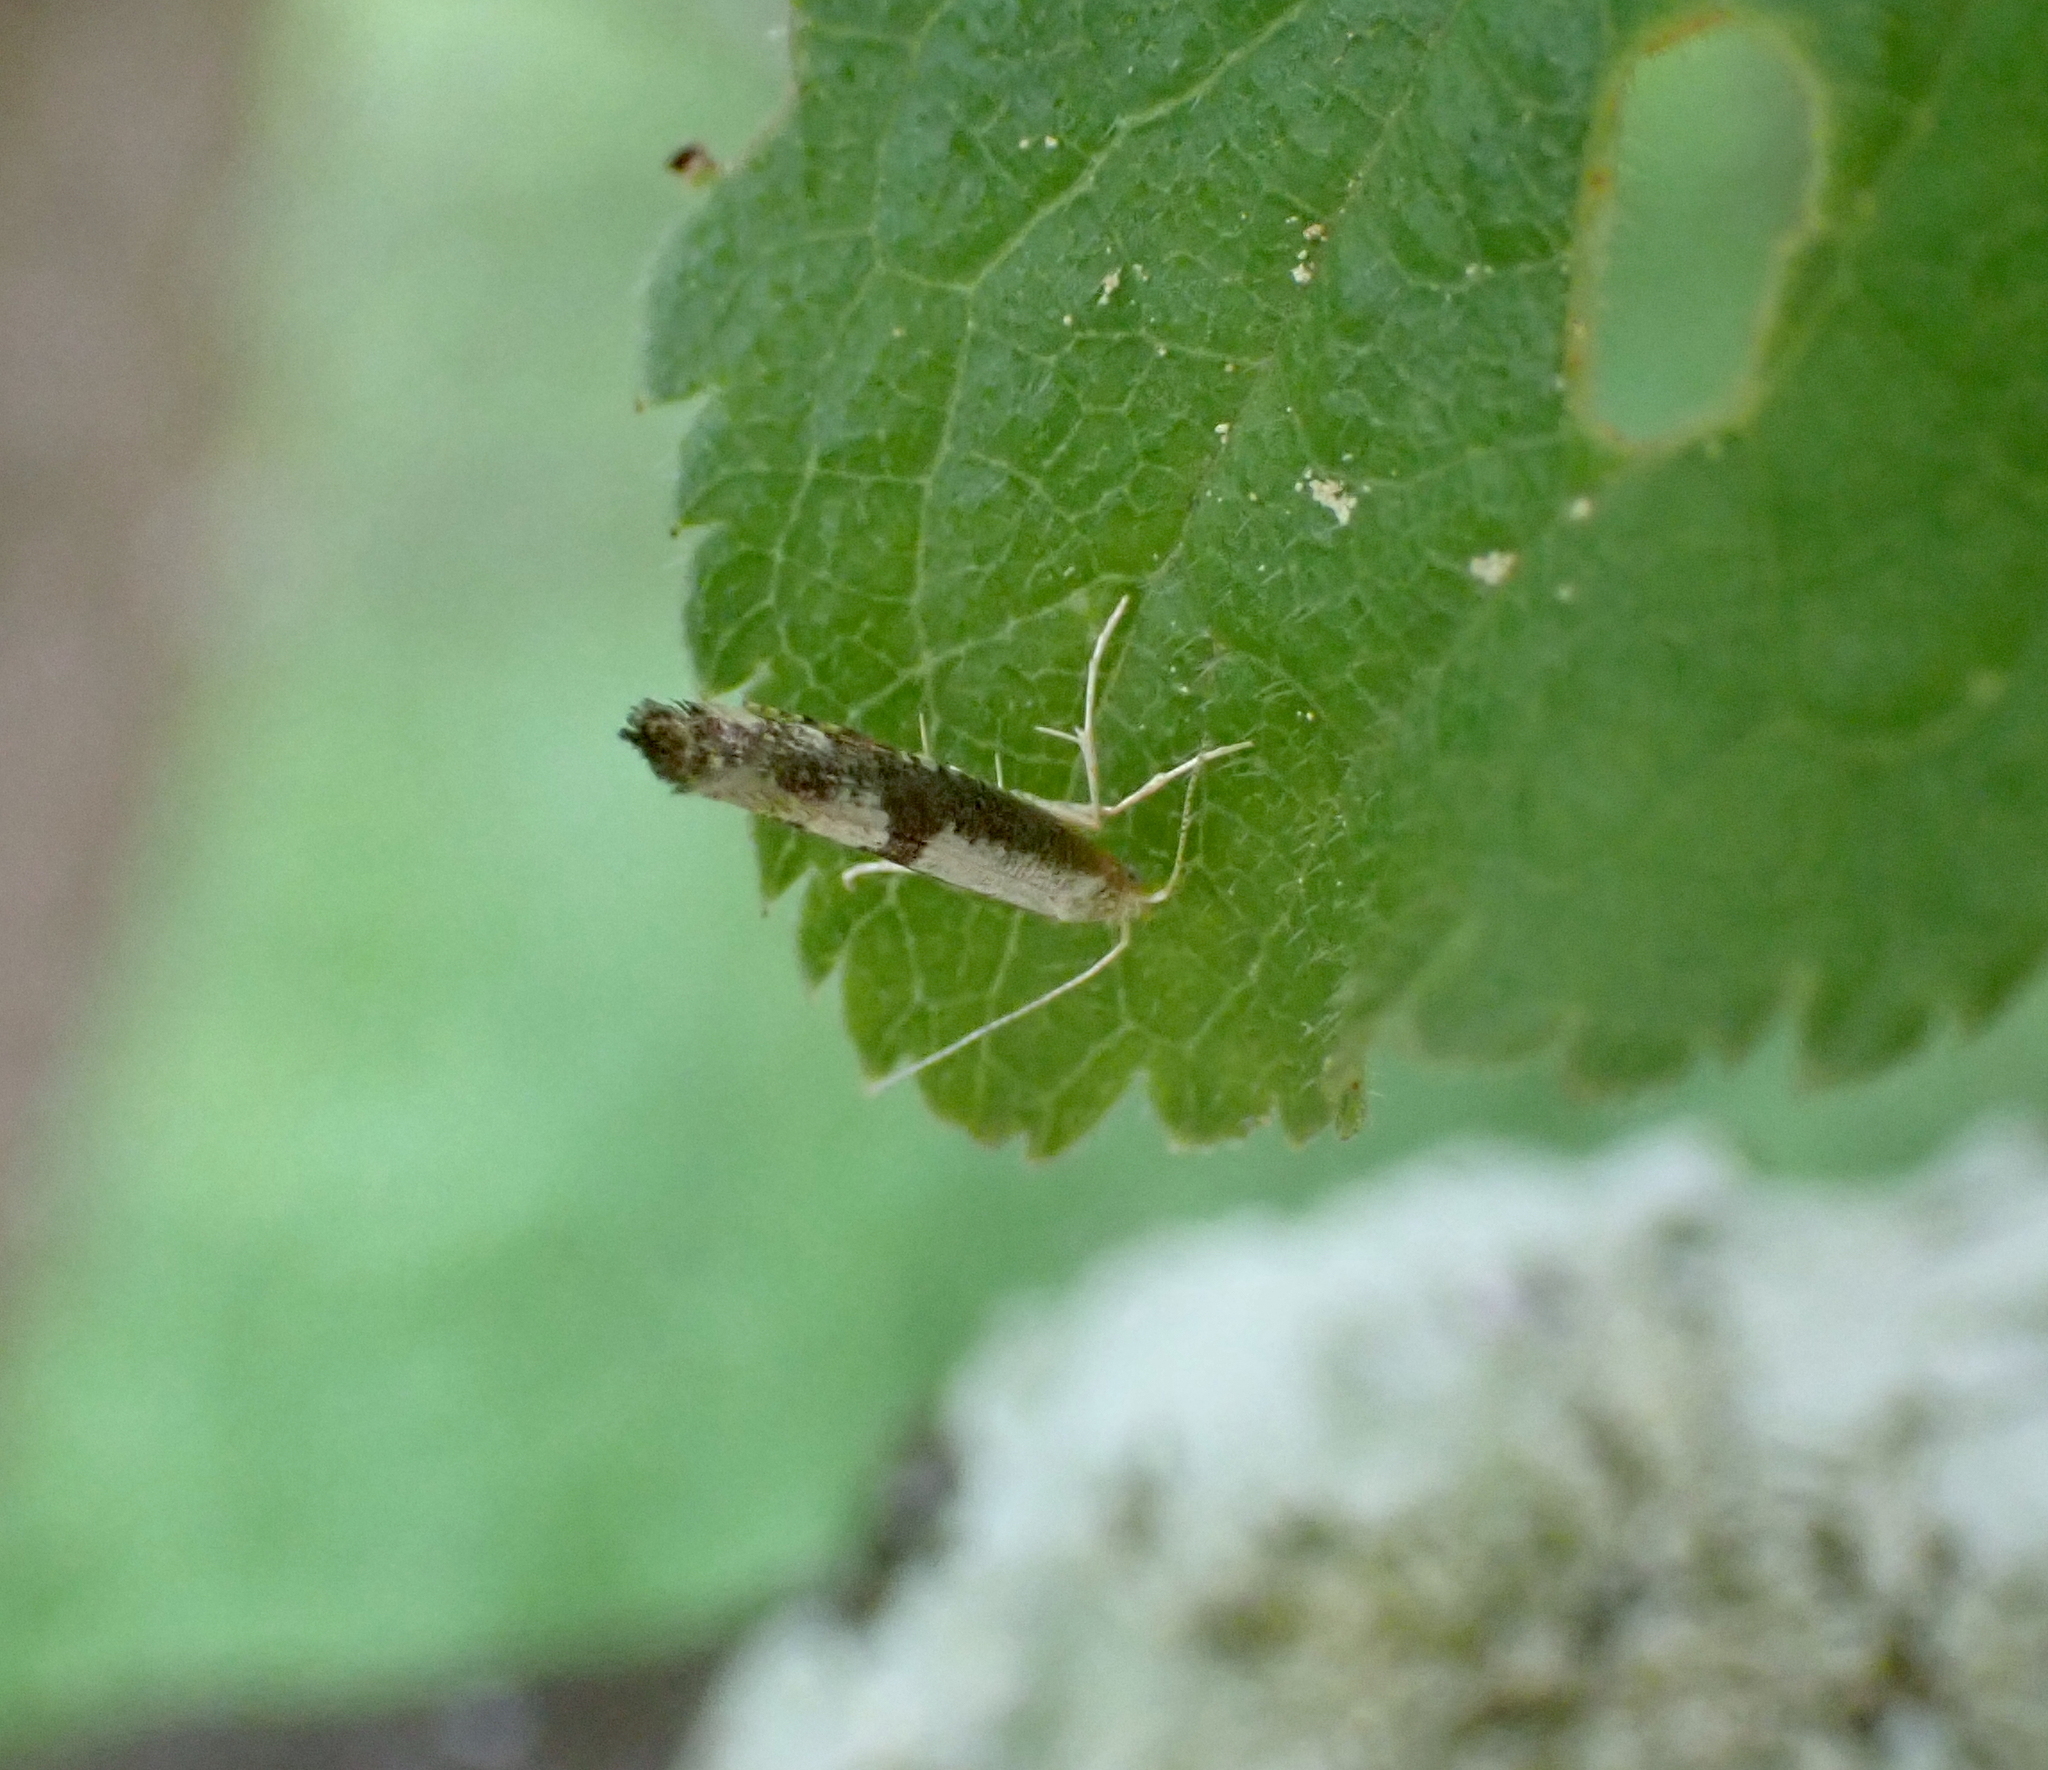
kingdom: Animalia
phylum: Arthropoda
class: Insecta
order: Lepidoptera
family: Argyresthiidae
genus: Argyresthia
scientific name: Argyresthia spinosella
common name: Blackthorn argent
